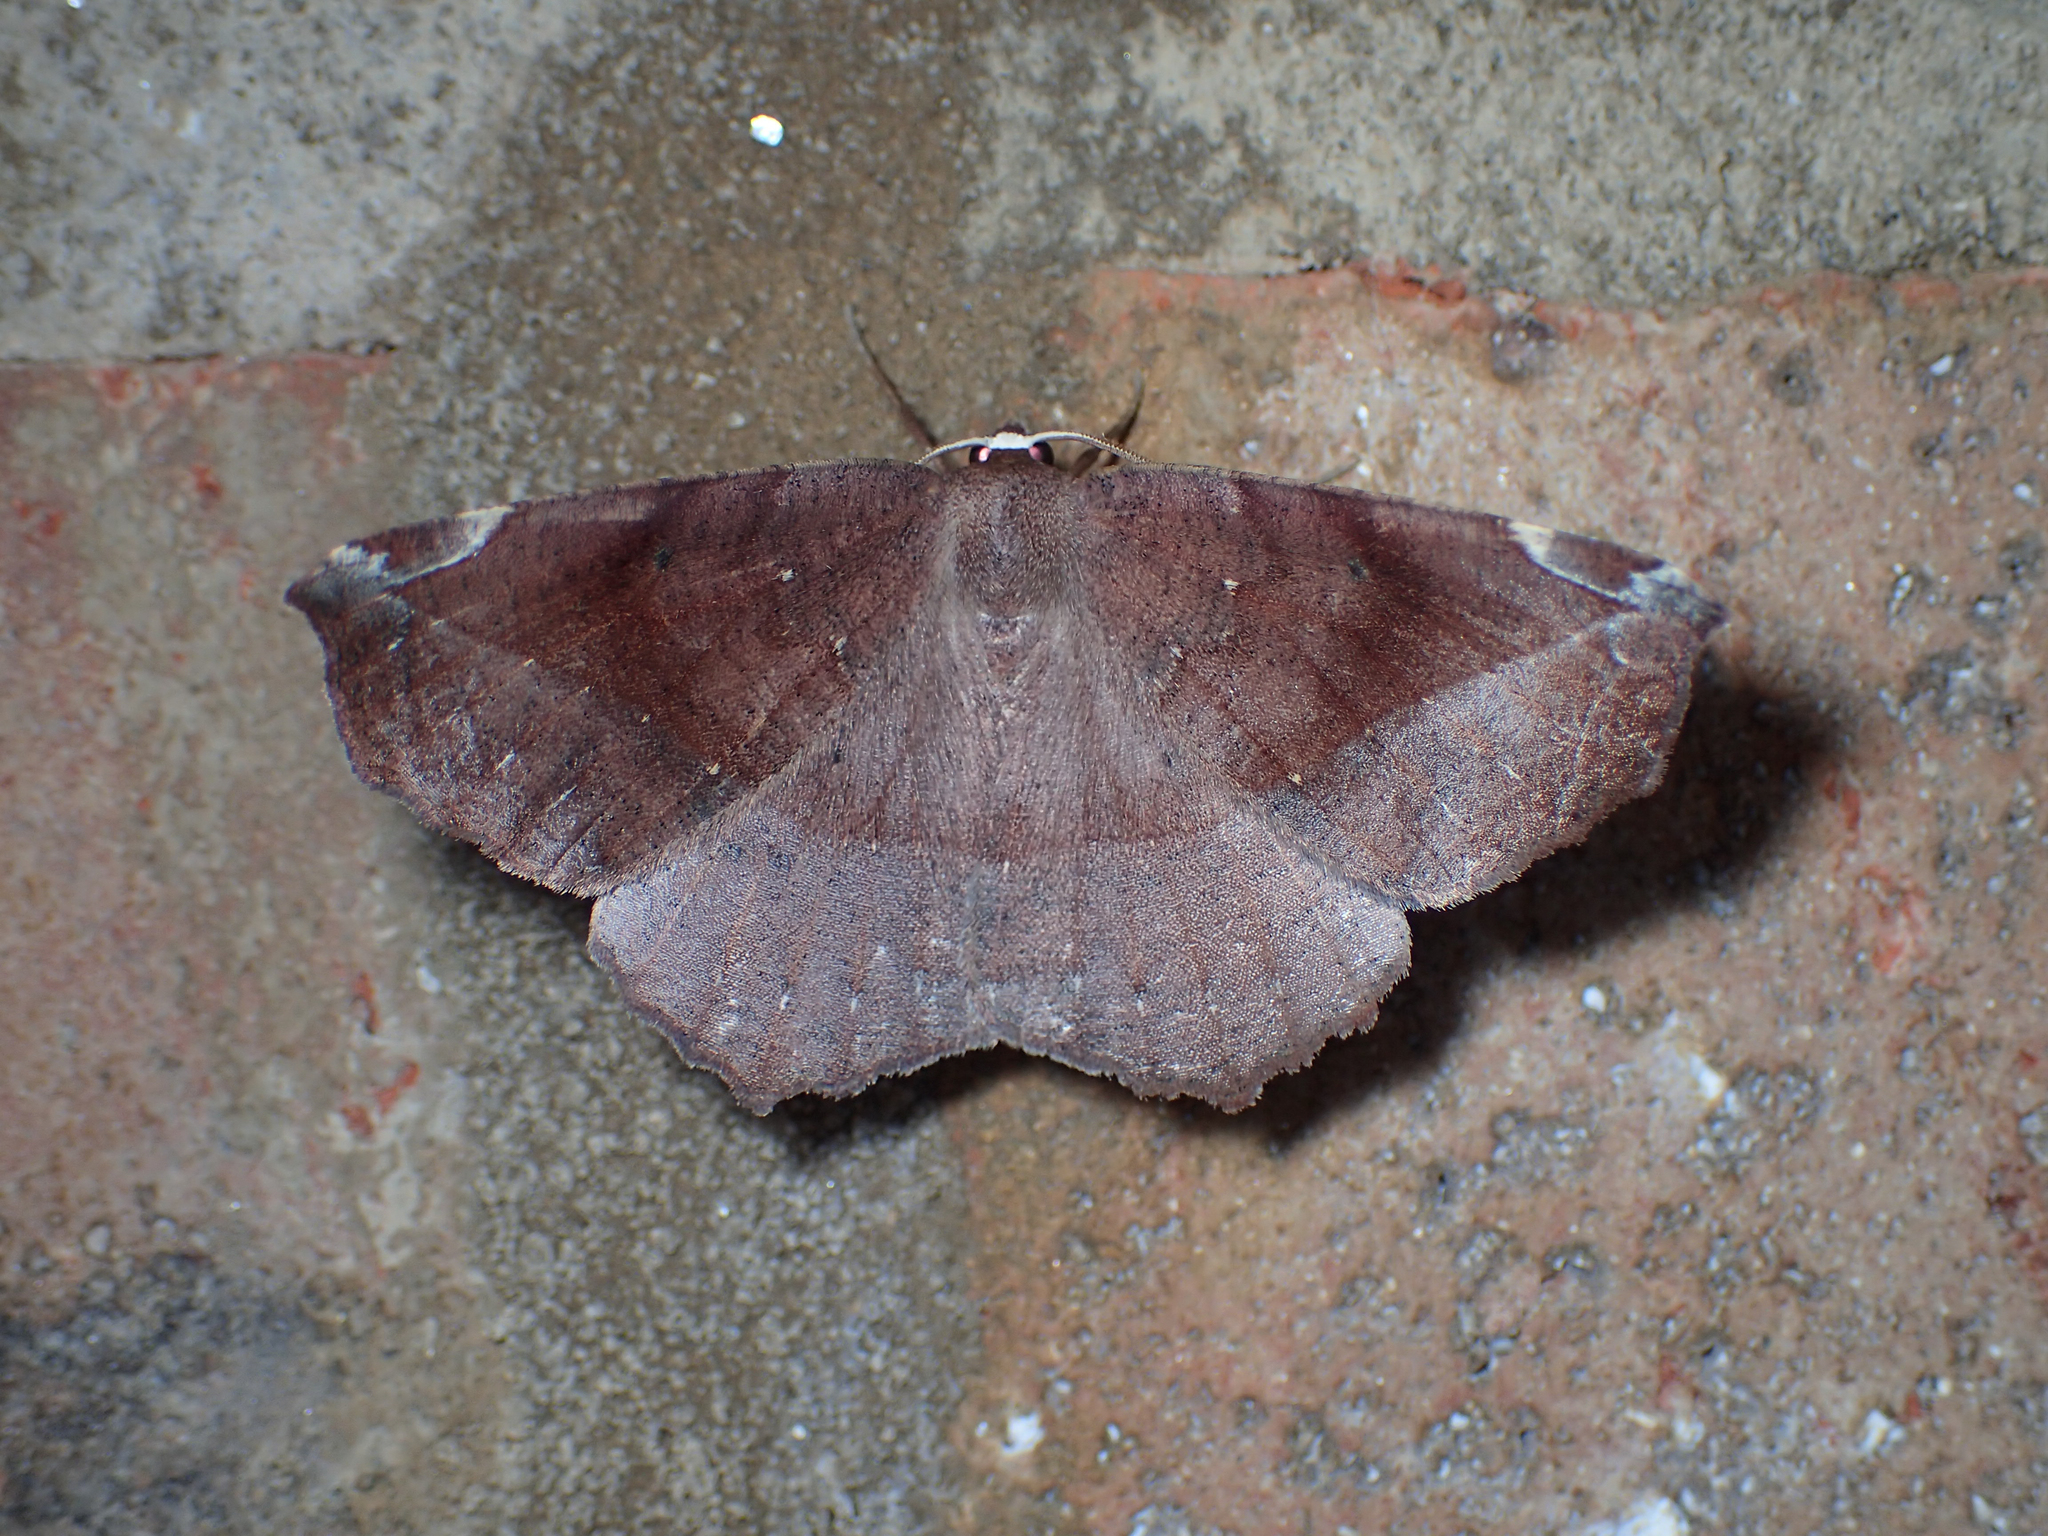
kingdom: Animalia
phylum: Arthropoda
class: Insecta
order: Lepidoptera
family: Geometridae
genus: Eutrapela
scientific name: Eutrapela clemataria
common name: Curved-toothed geometer
